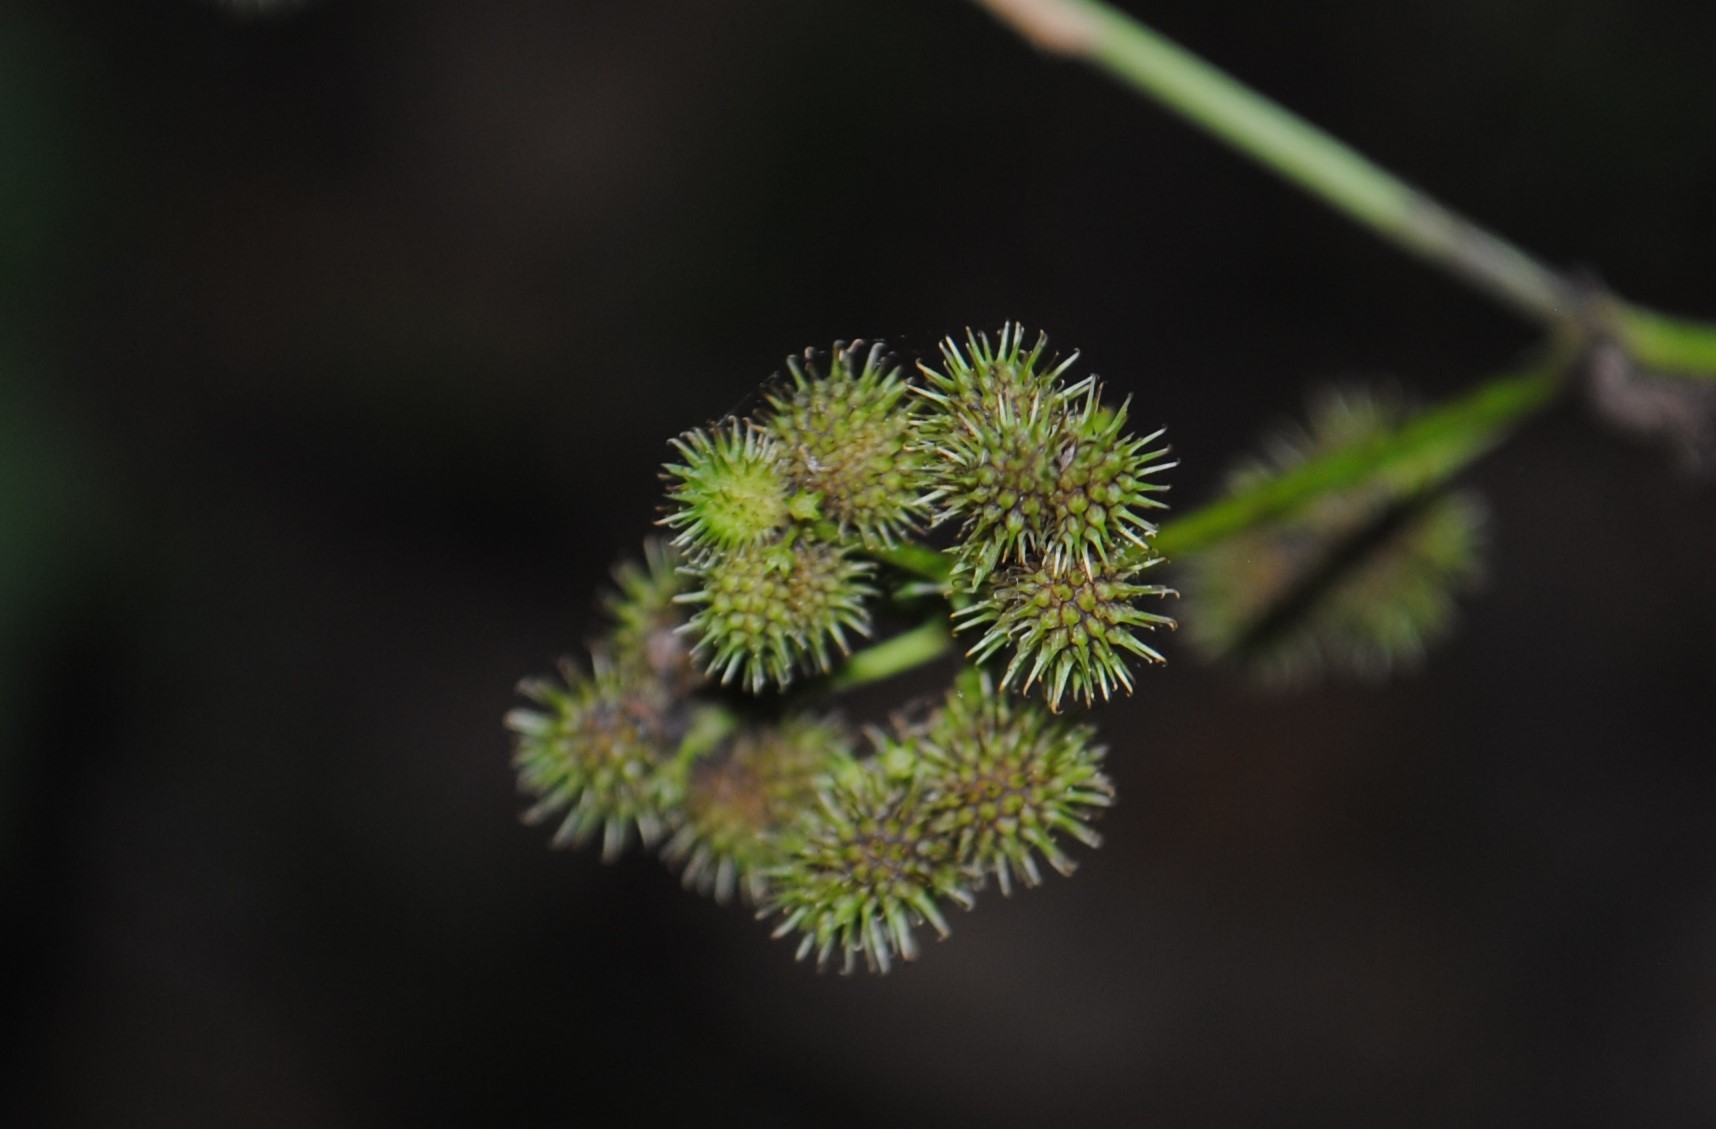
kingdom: Plantae
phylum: Tracheophyta
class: Magnoliopsida
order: Apiales
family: Apiaceae
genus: Sanicula
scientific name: Sanicula canadensis
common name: Canada sanicle
